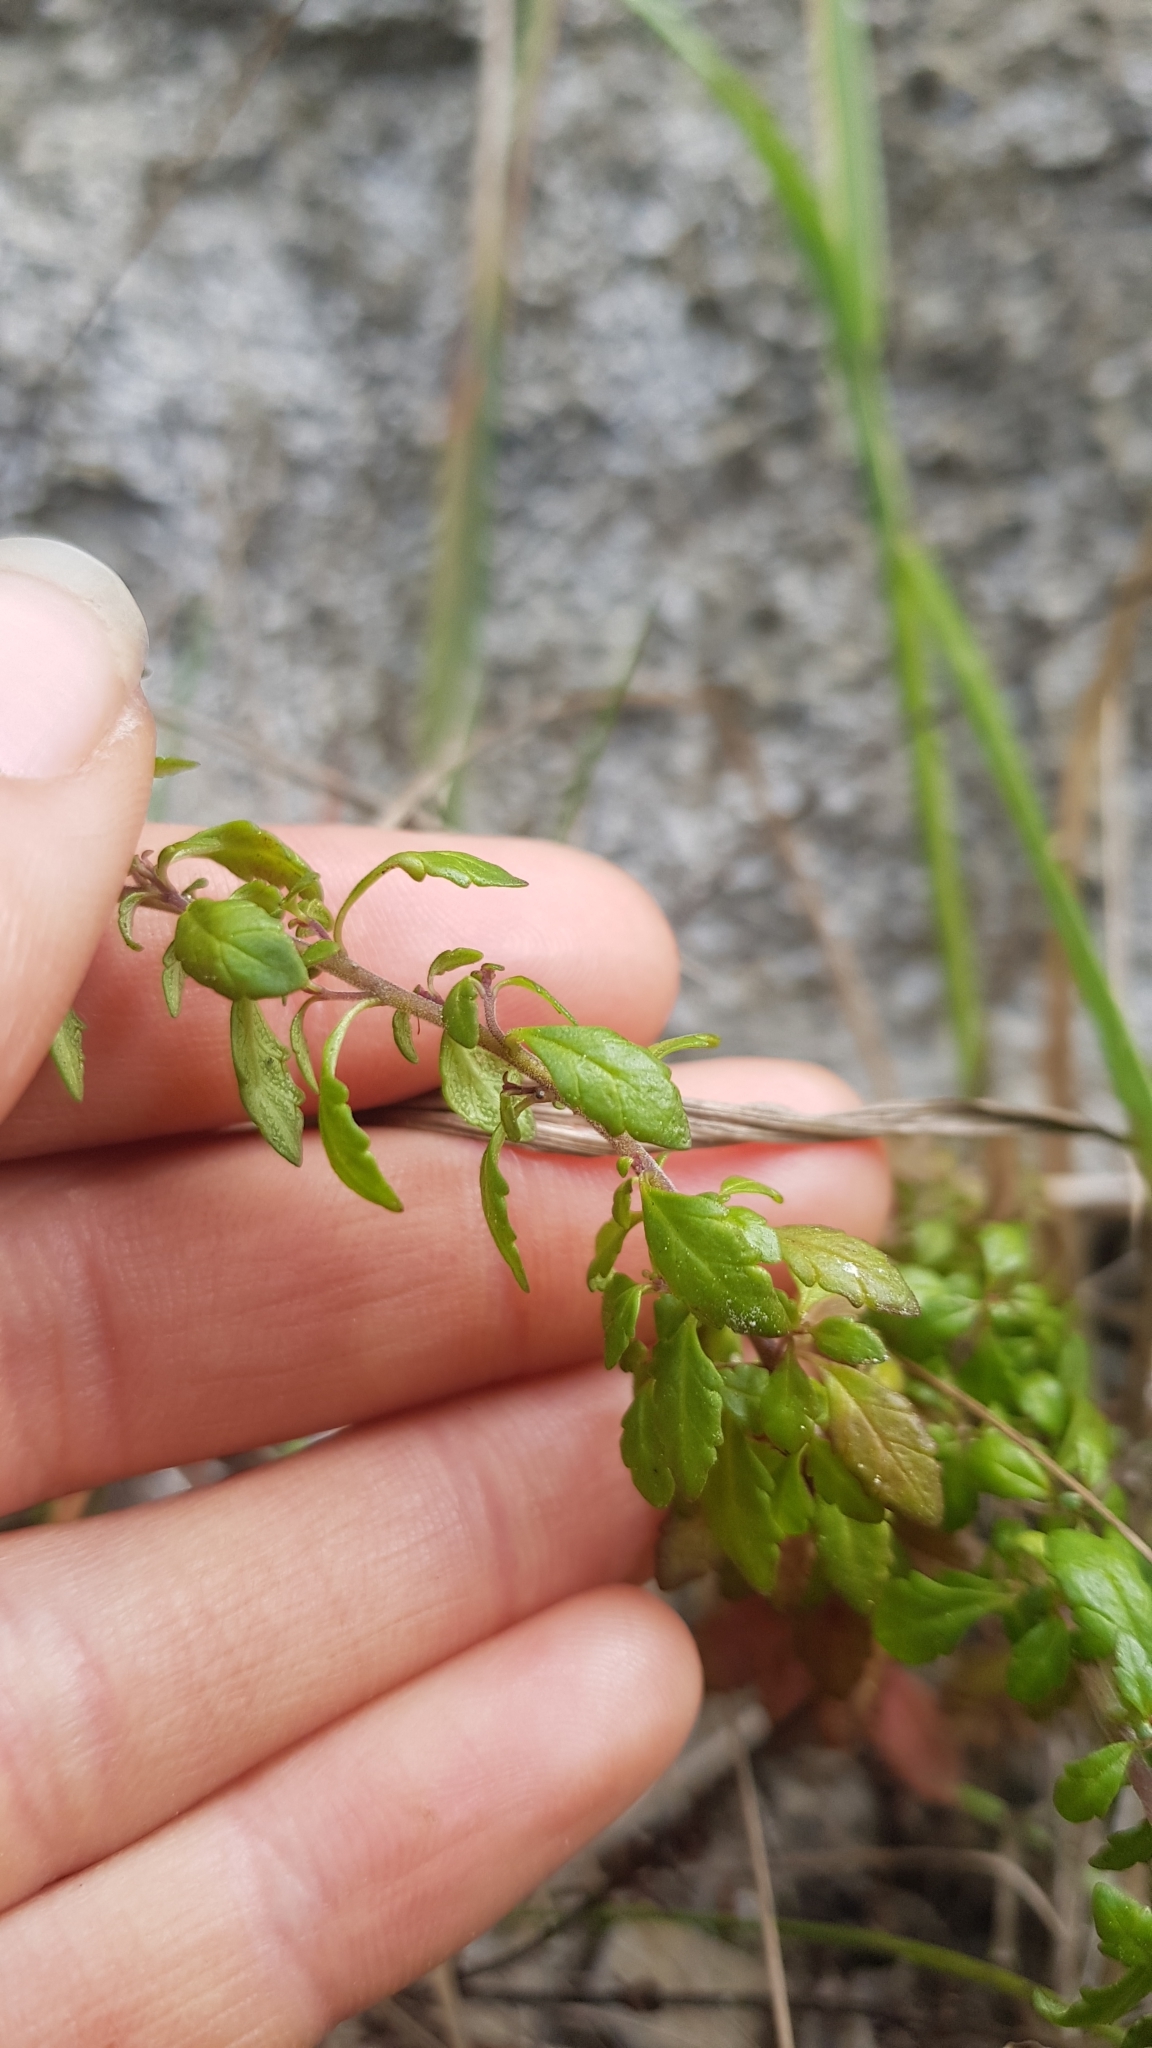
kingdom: Plantae
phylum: Tracheophyta
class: Magnoliopsida
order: Lamiales
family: Orobanchaceae
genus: Euphrasia
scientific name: Euphrasia cuneata
